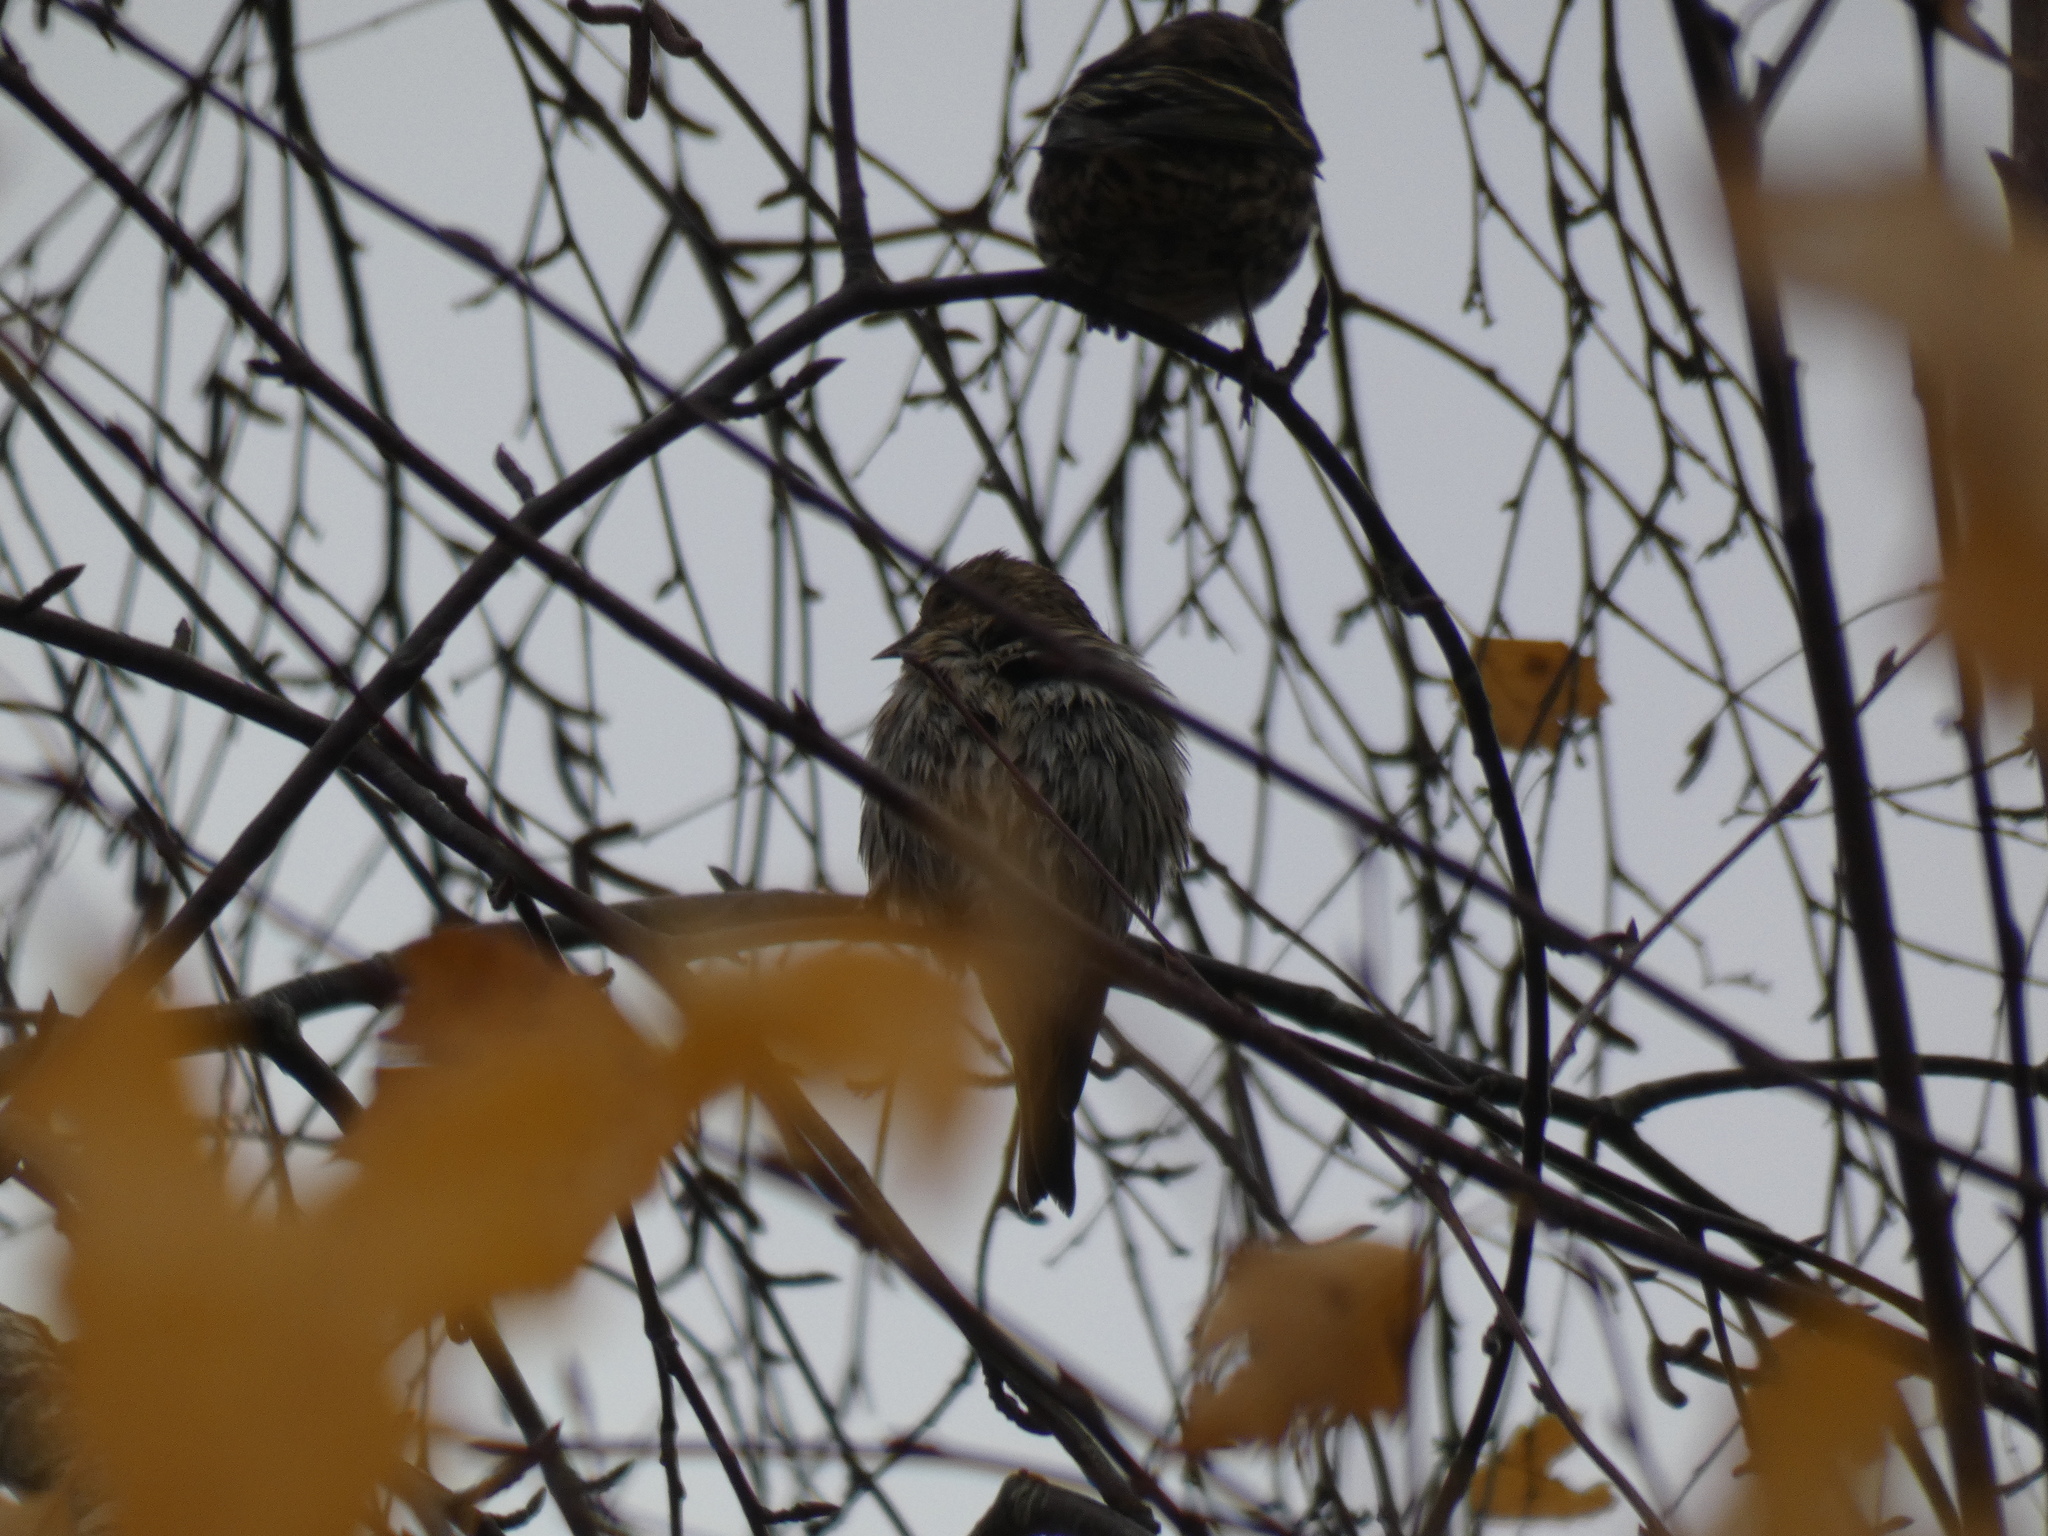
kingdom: Animalia
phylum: Chordata
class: Aves
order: Passeriformes
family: Fringillidae
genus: Spinus
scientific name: Spinus pinus
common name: Pine siskin
